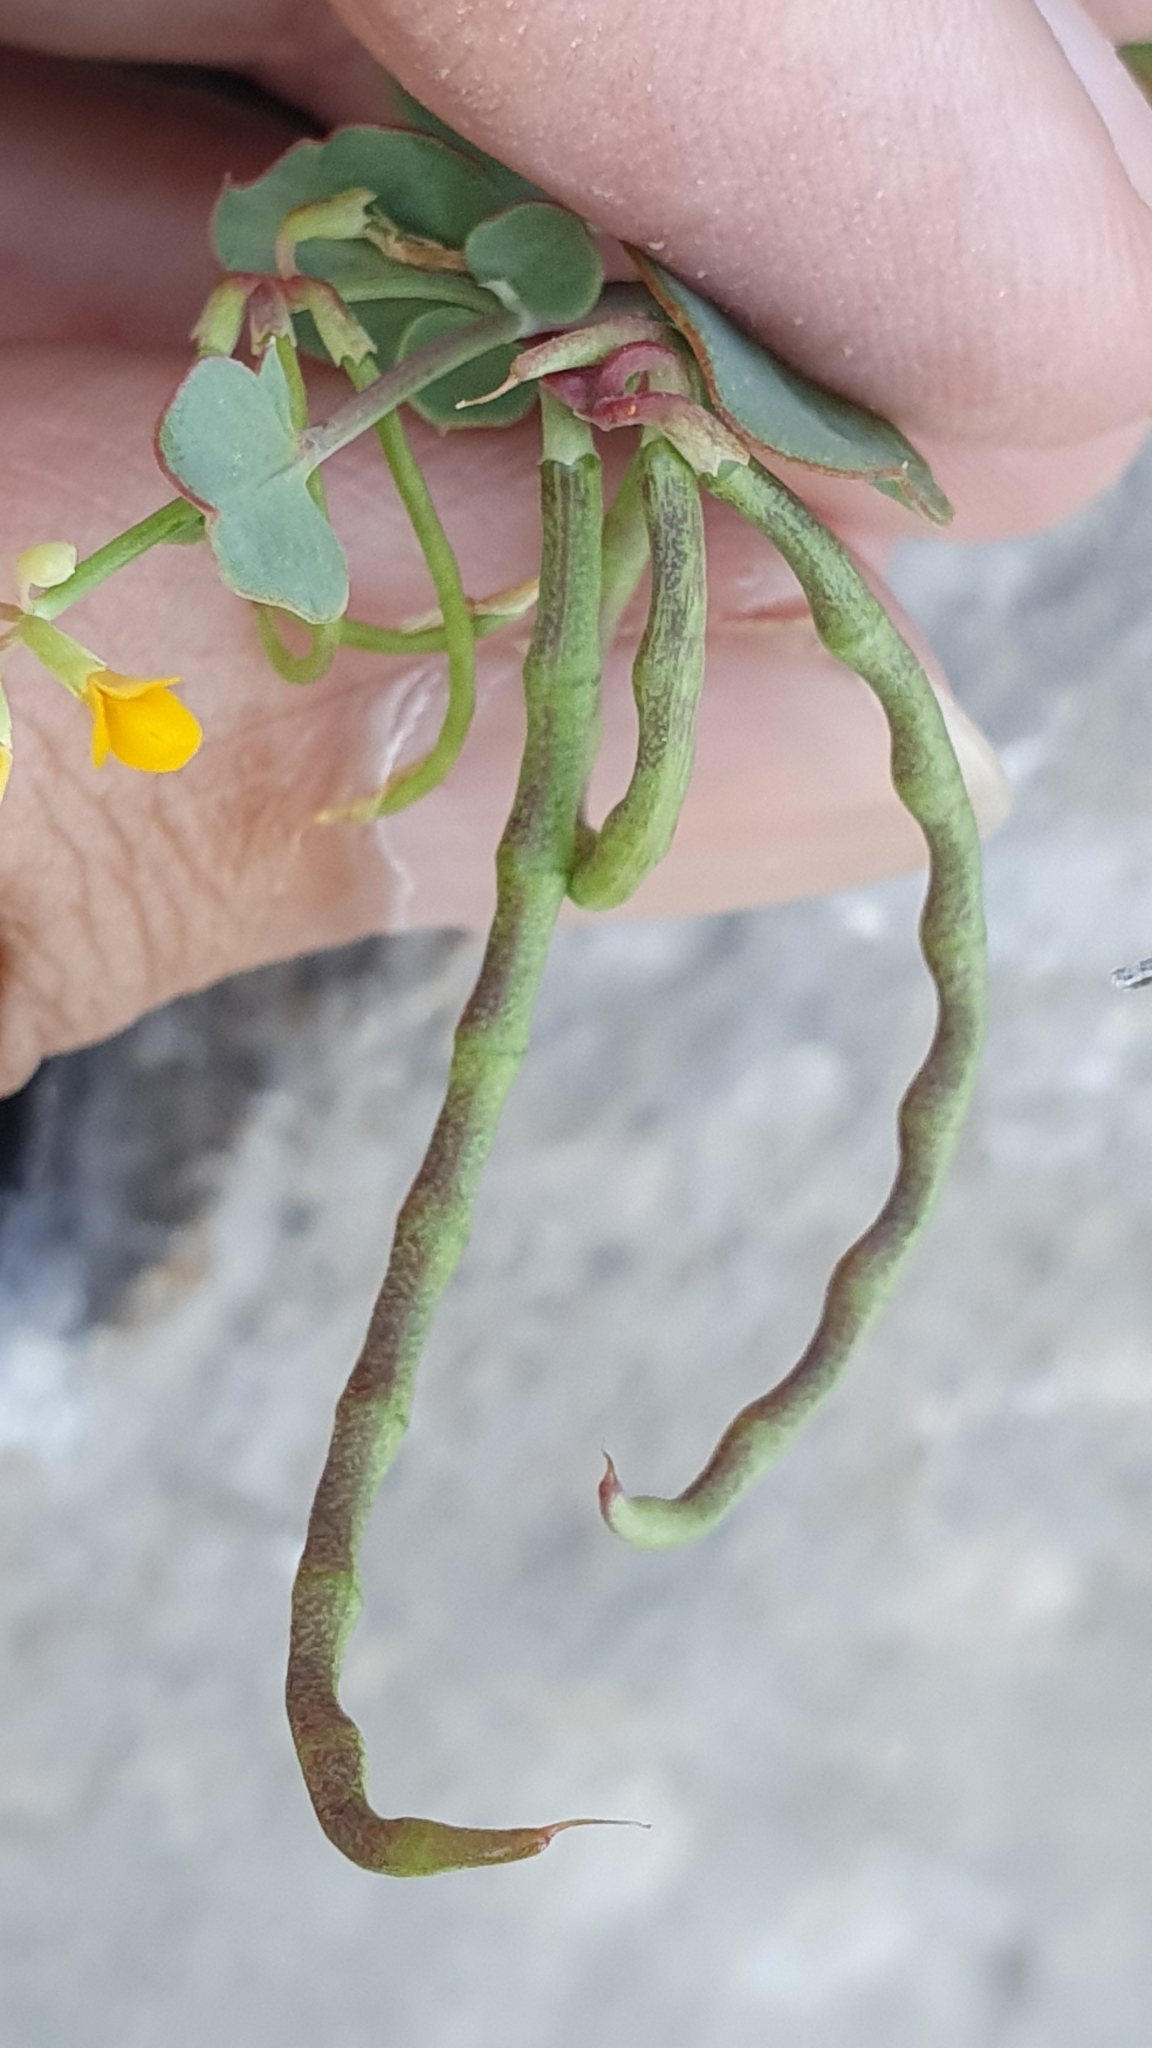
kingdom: Plantae
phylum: Tracheophyta
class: Magnoliopsida
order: Fabales
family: Fabaceae
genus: Coronilla
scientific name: Coronilla scorpioides
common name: Annual scorpion-vetch
